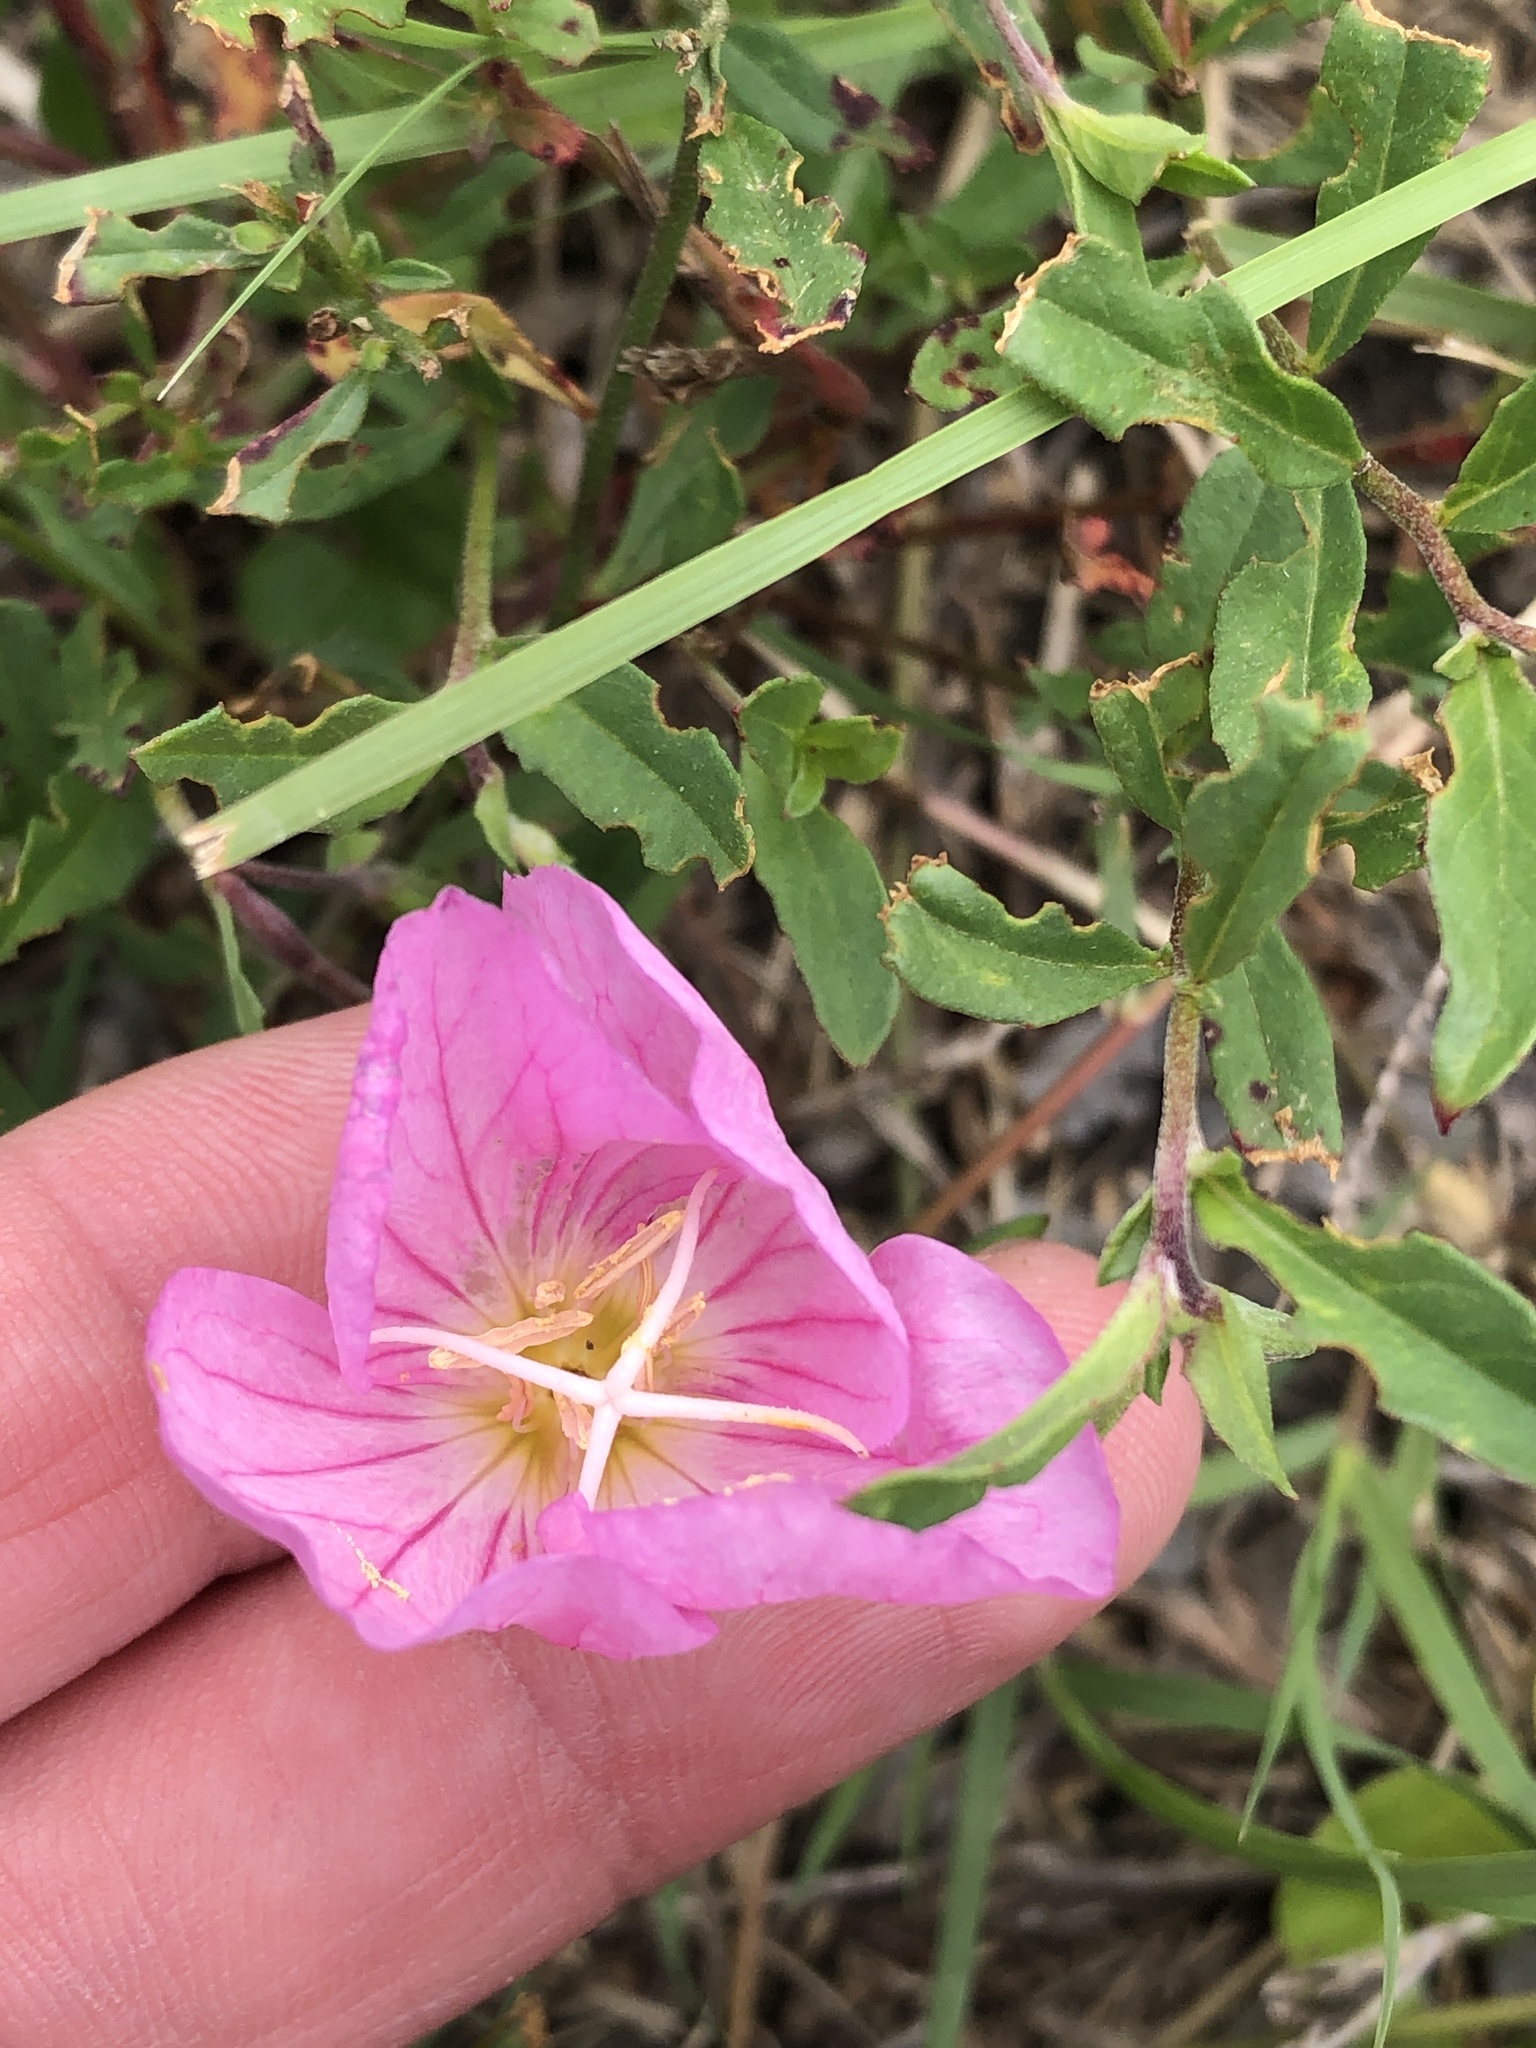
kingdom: Plantae
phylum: Tracheophyta
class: Magnoliopsida
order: Myrtales
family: Onagraceae
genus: Oenothera
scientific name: Oenothera speciosa
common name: White evening-primrose
